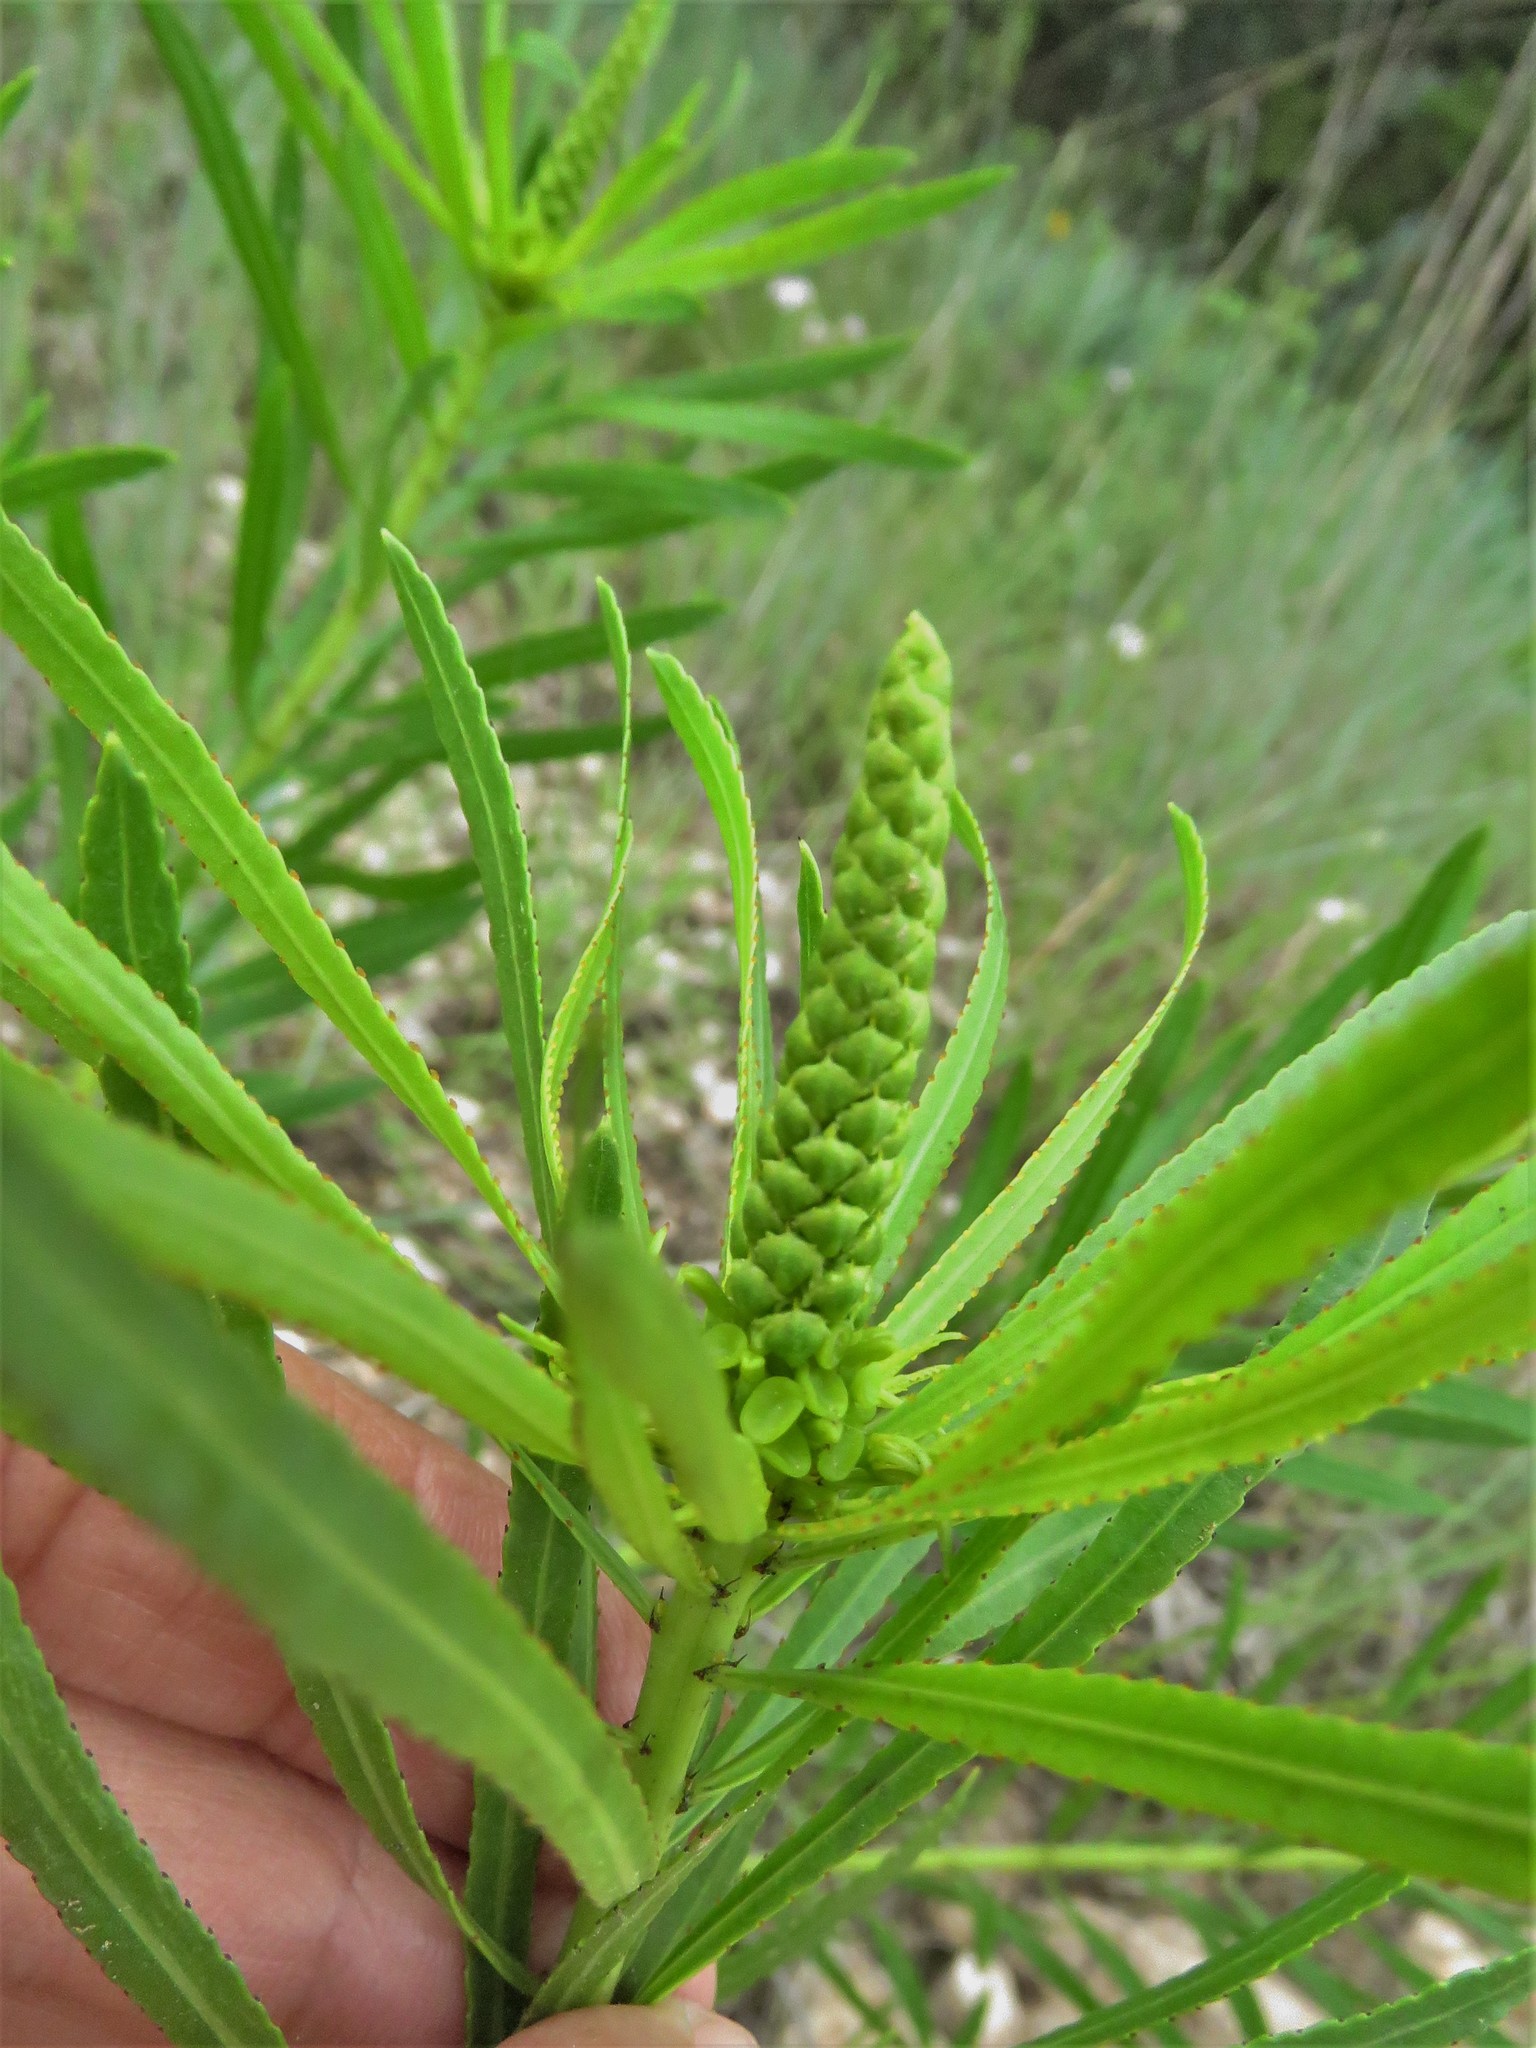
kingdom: Plantae
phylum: Tracheophyta
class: Magnoliopsida
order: Malpighiales
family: Euphorbiaceae
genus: Stillingia
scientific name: Stillingia texana
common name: Texas stillingia
